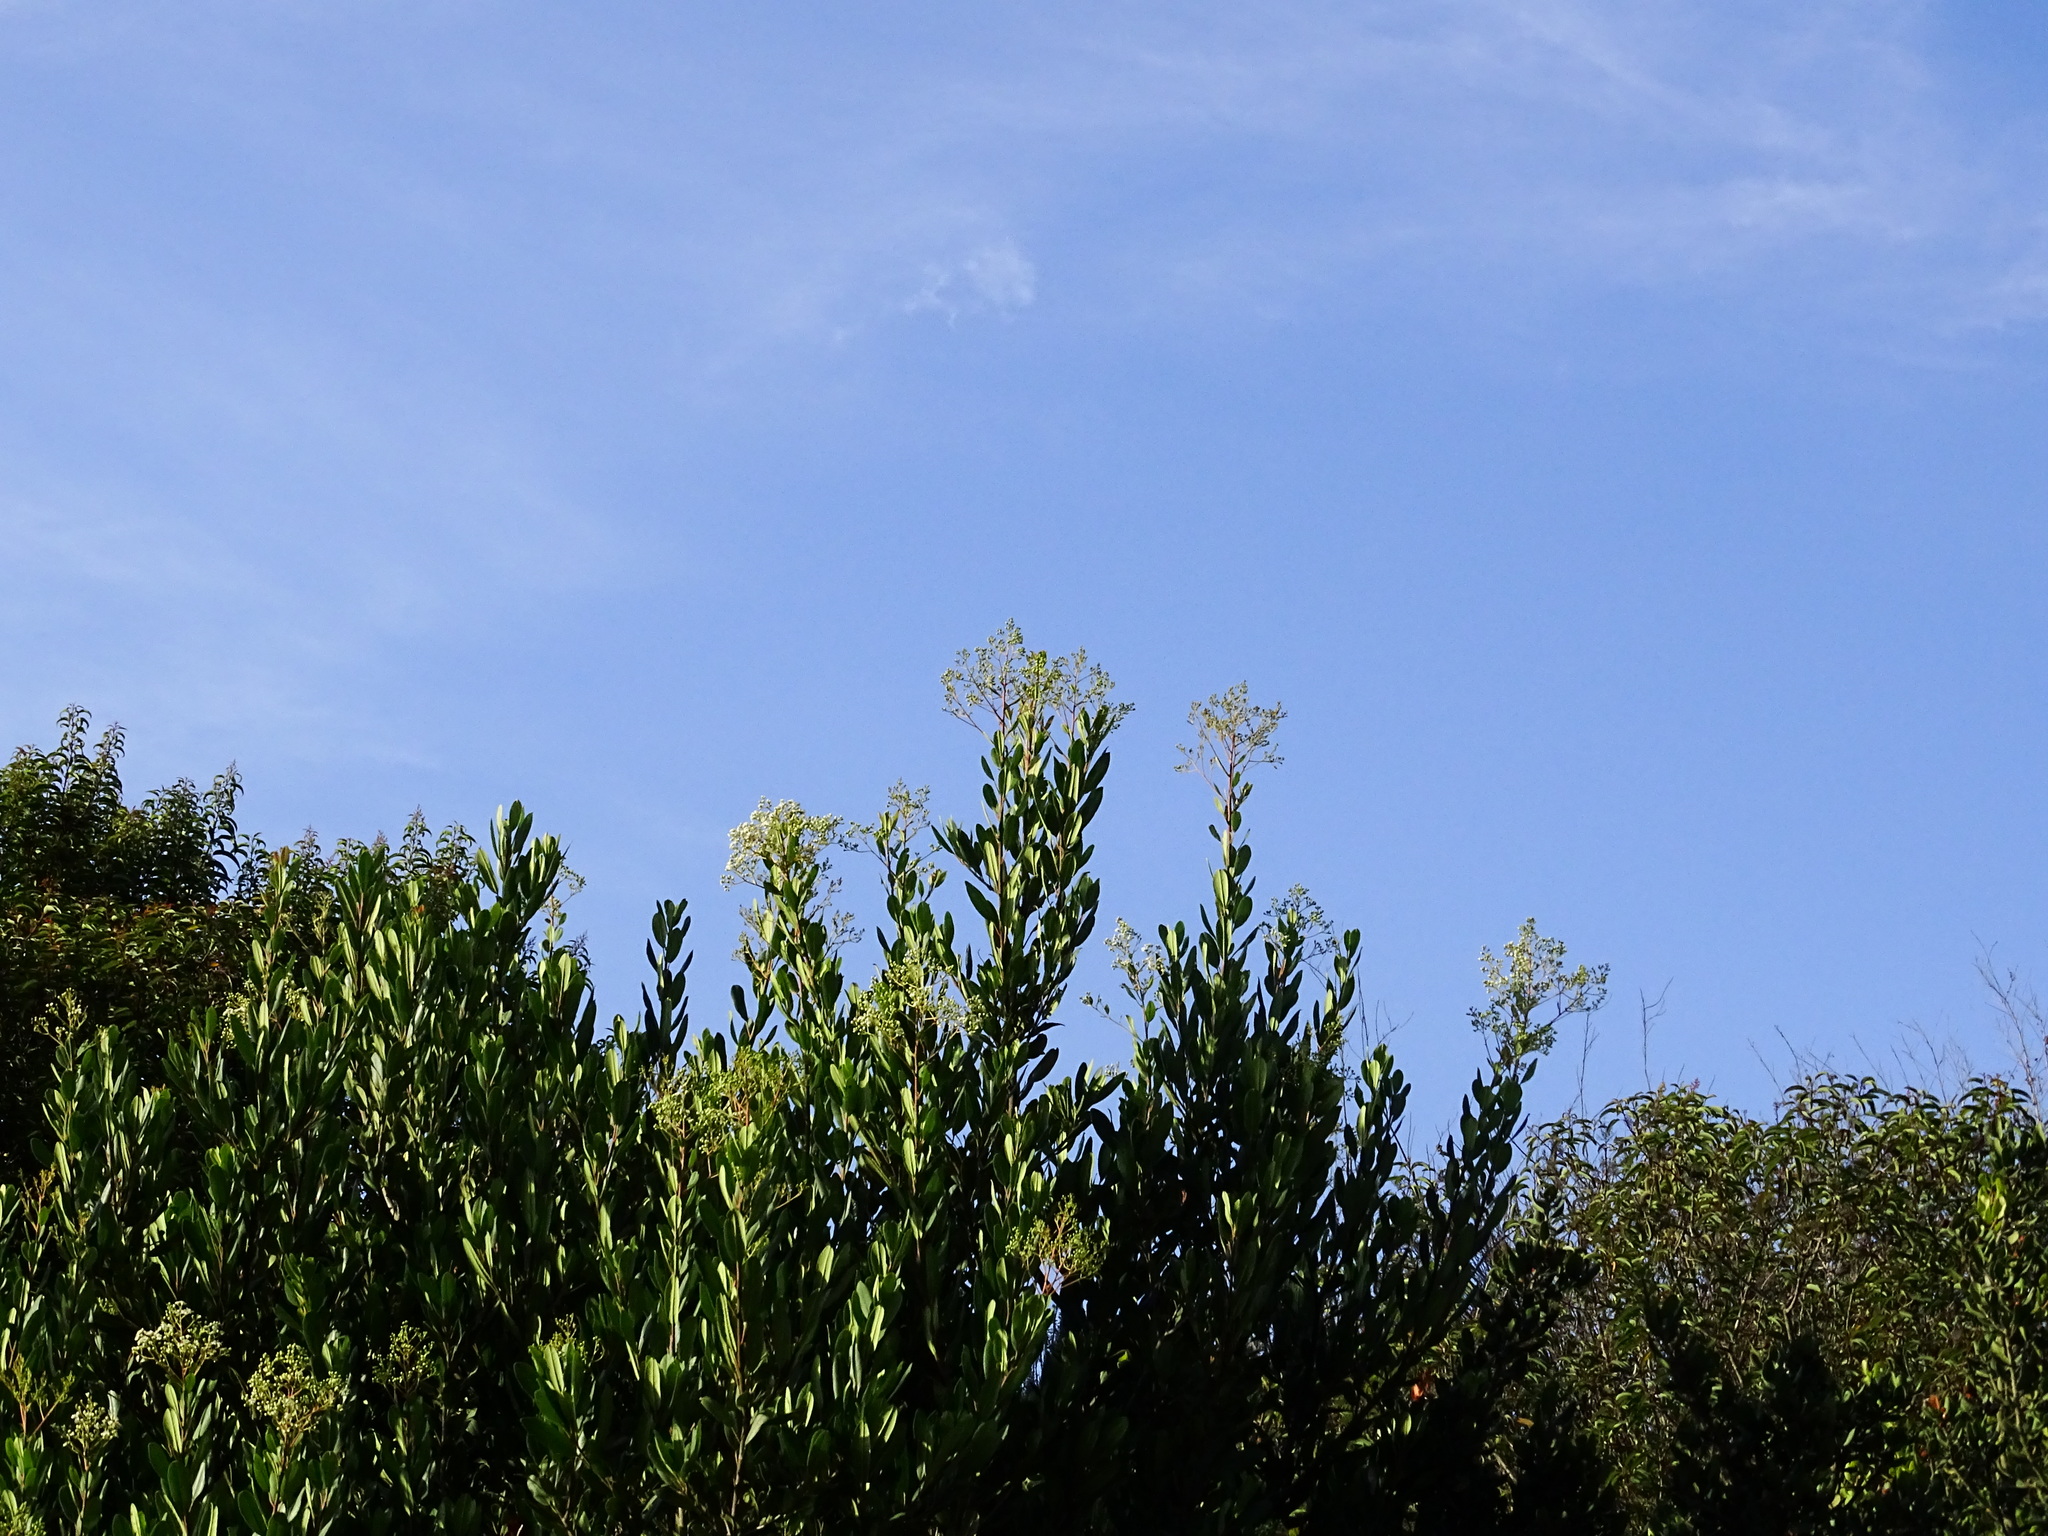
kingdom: Plantae
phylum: Tracheophyta
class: Magnoliopsida
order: Rosales
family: Rosaceae
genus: Heteromeles
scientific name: Heteromeles arbutifolia
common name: California-holly
